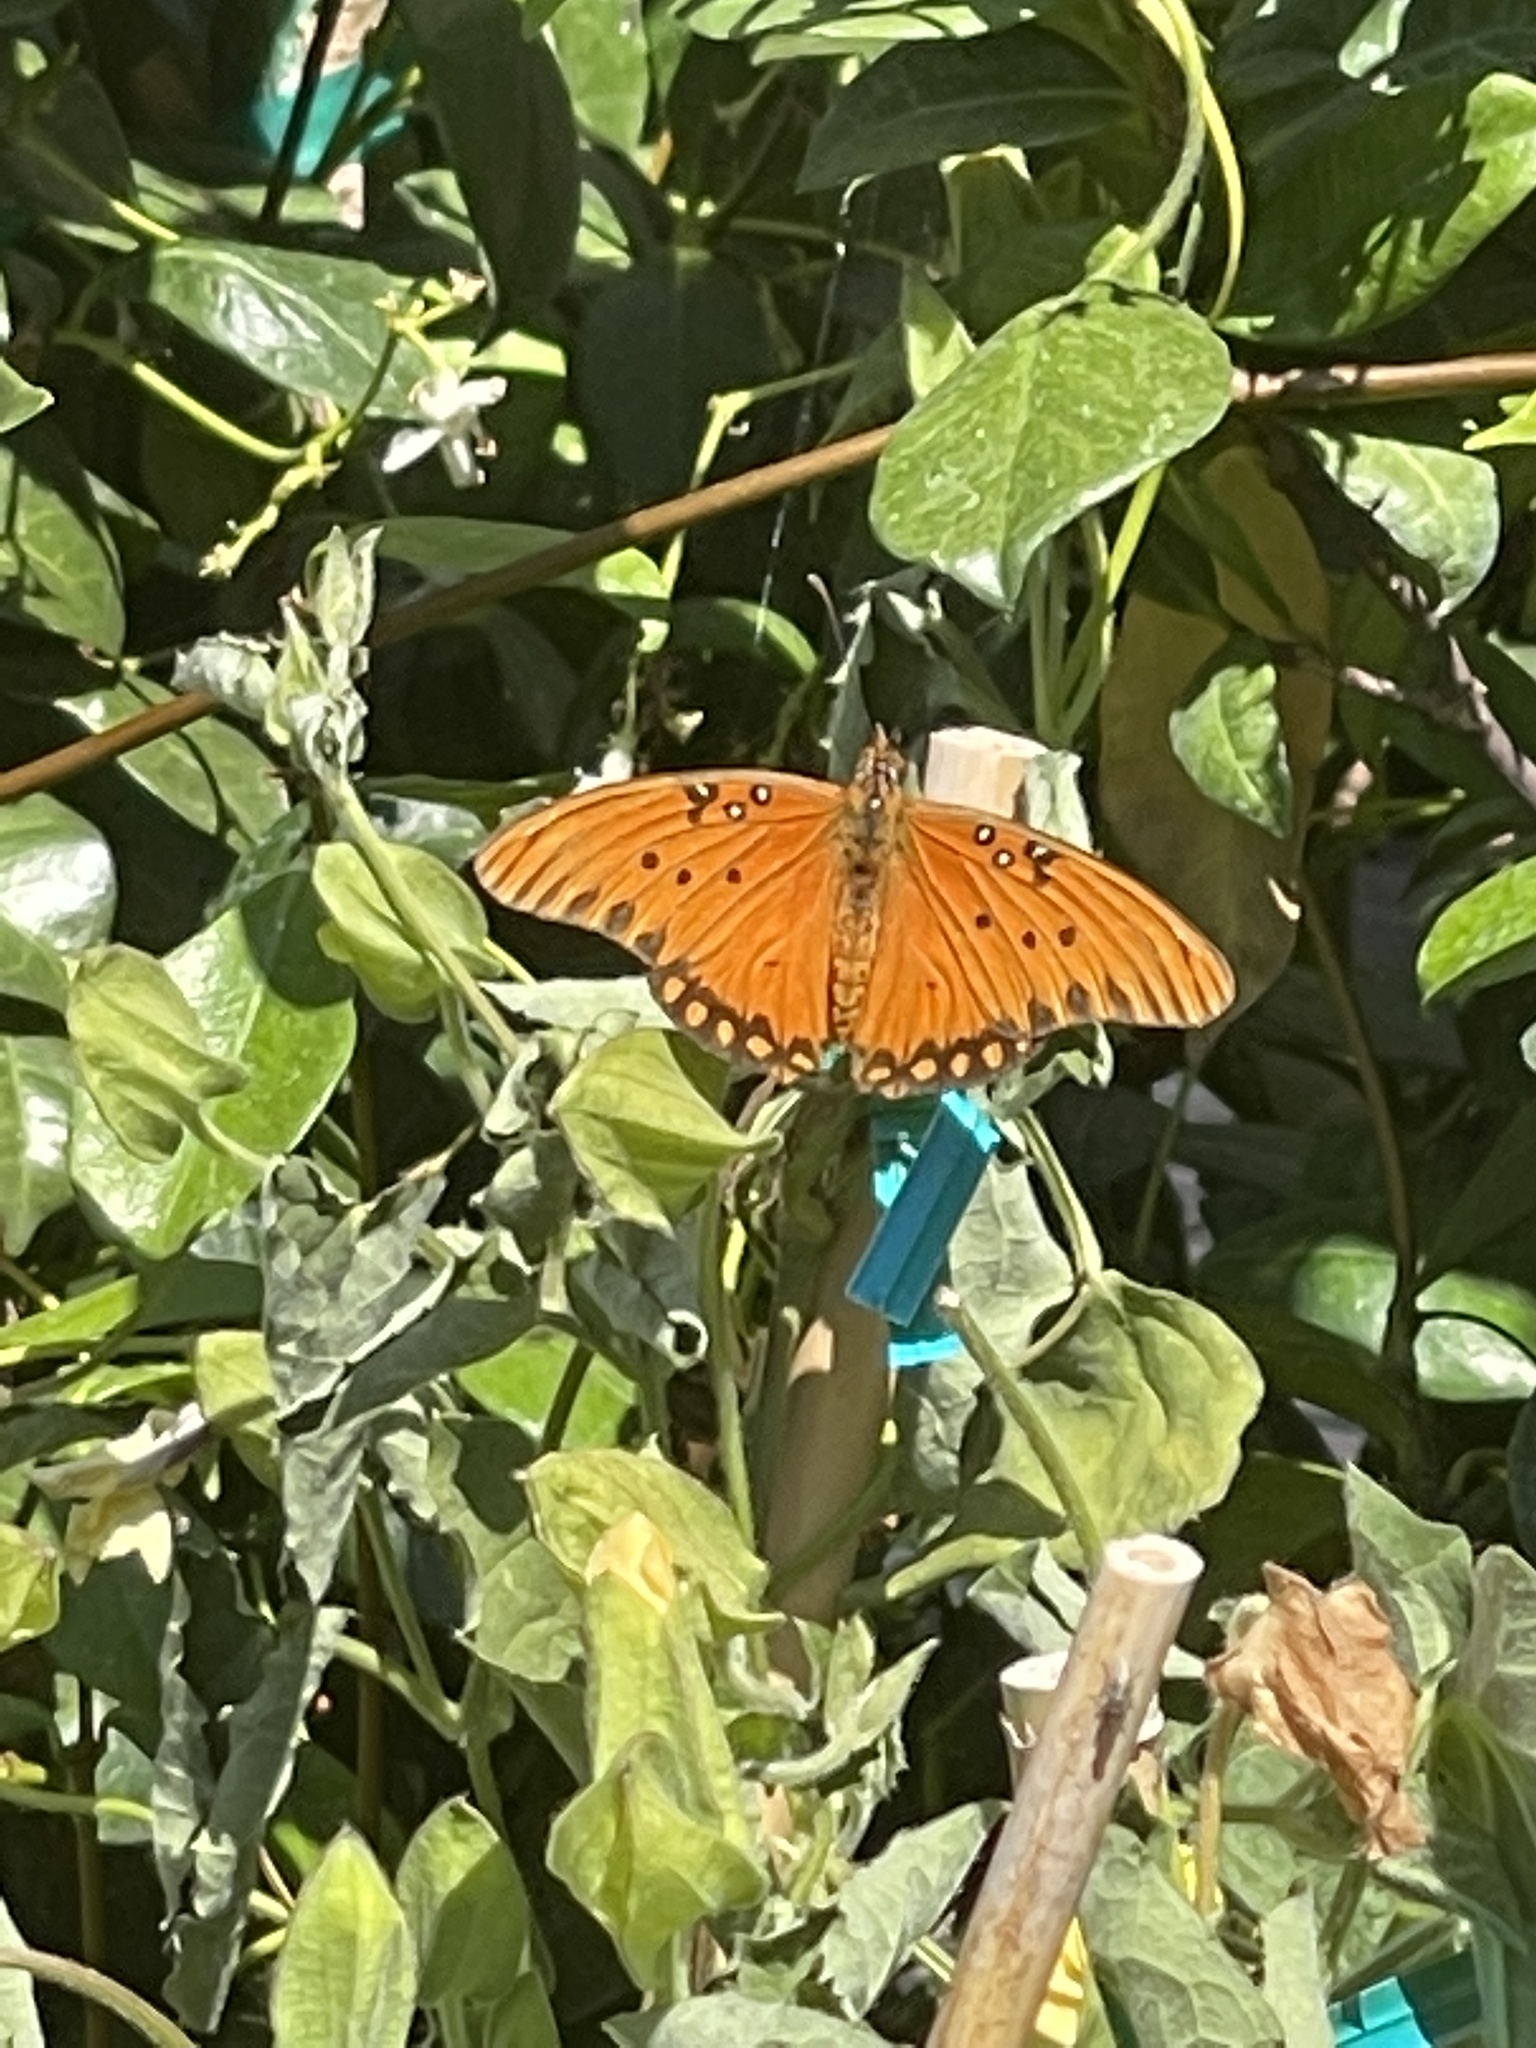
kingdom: Animalia
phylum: Arthropoda
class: Insecta
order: Lepidoptera
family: Nymphalidae
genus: Dione
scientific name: Dione vanillae
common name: Gulf fritillary
